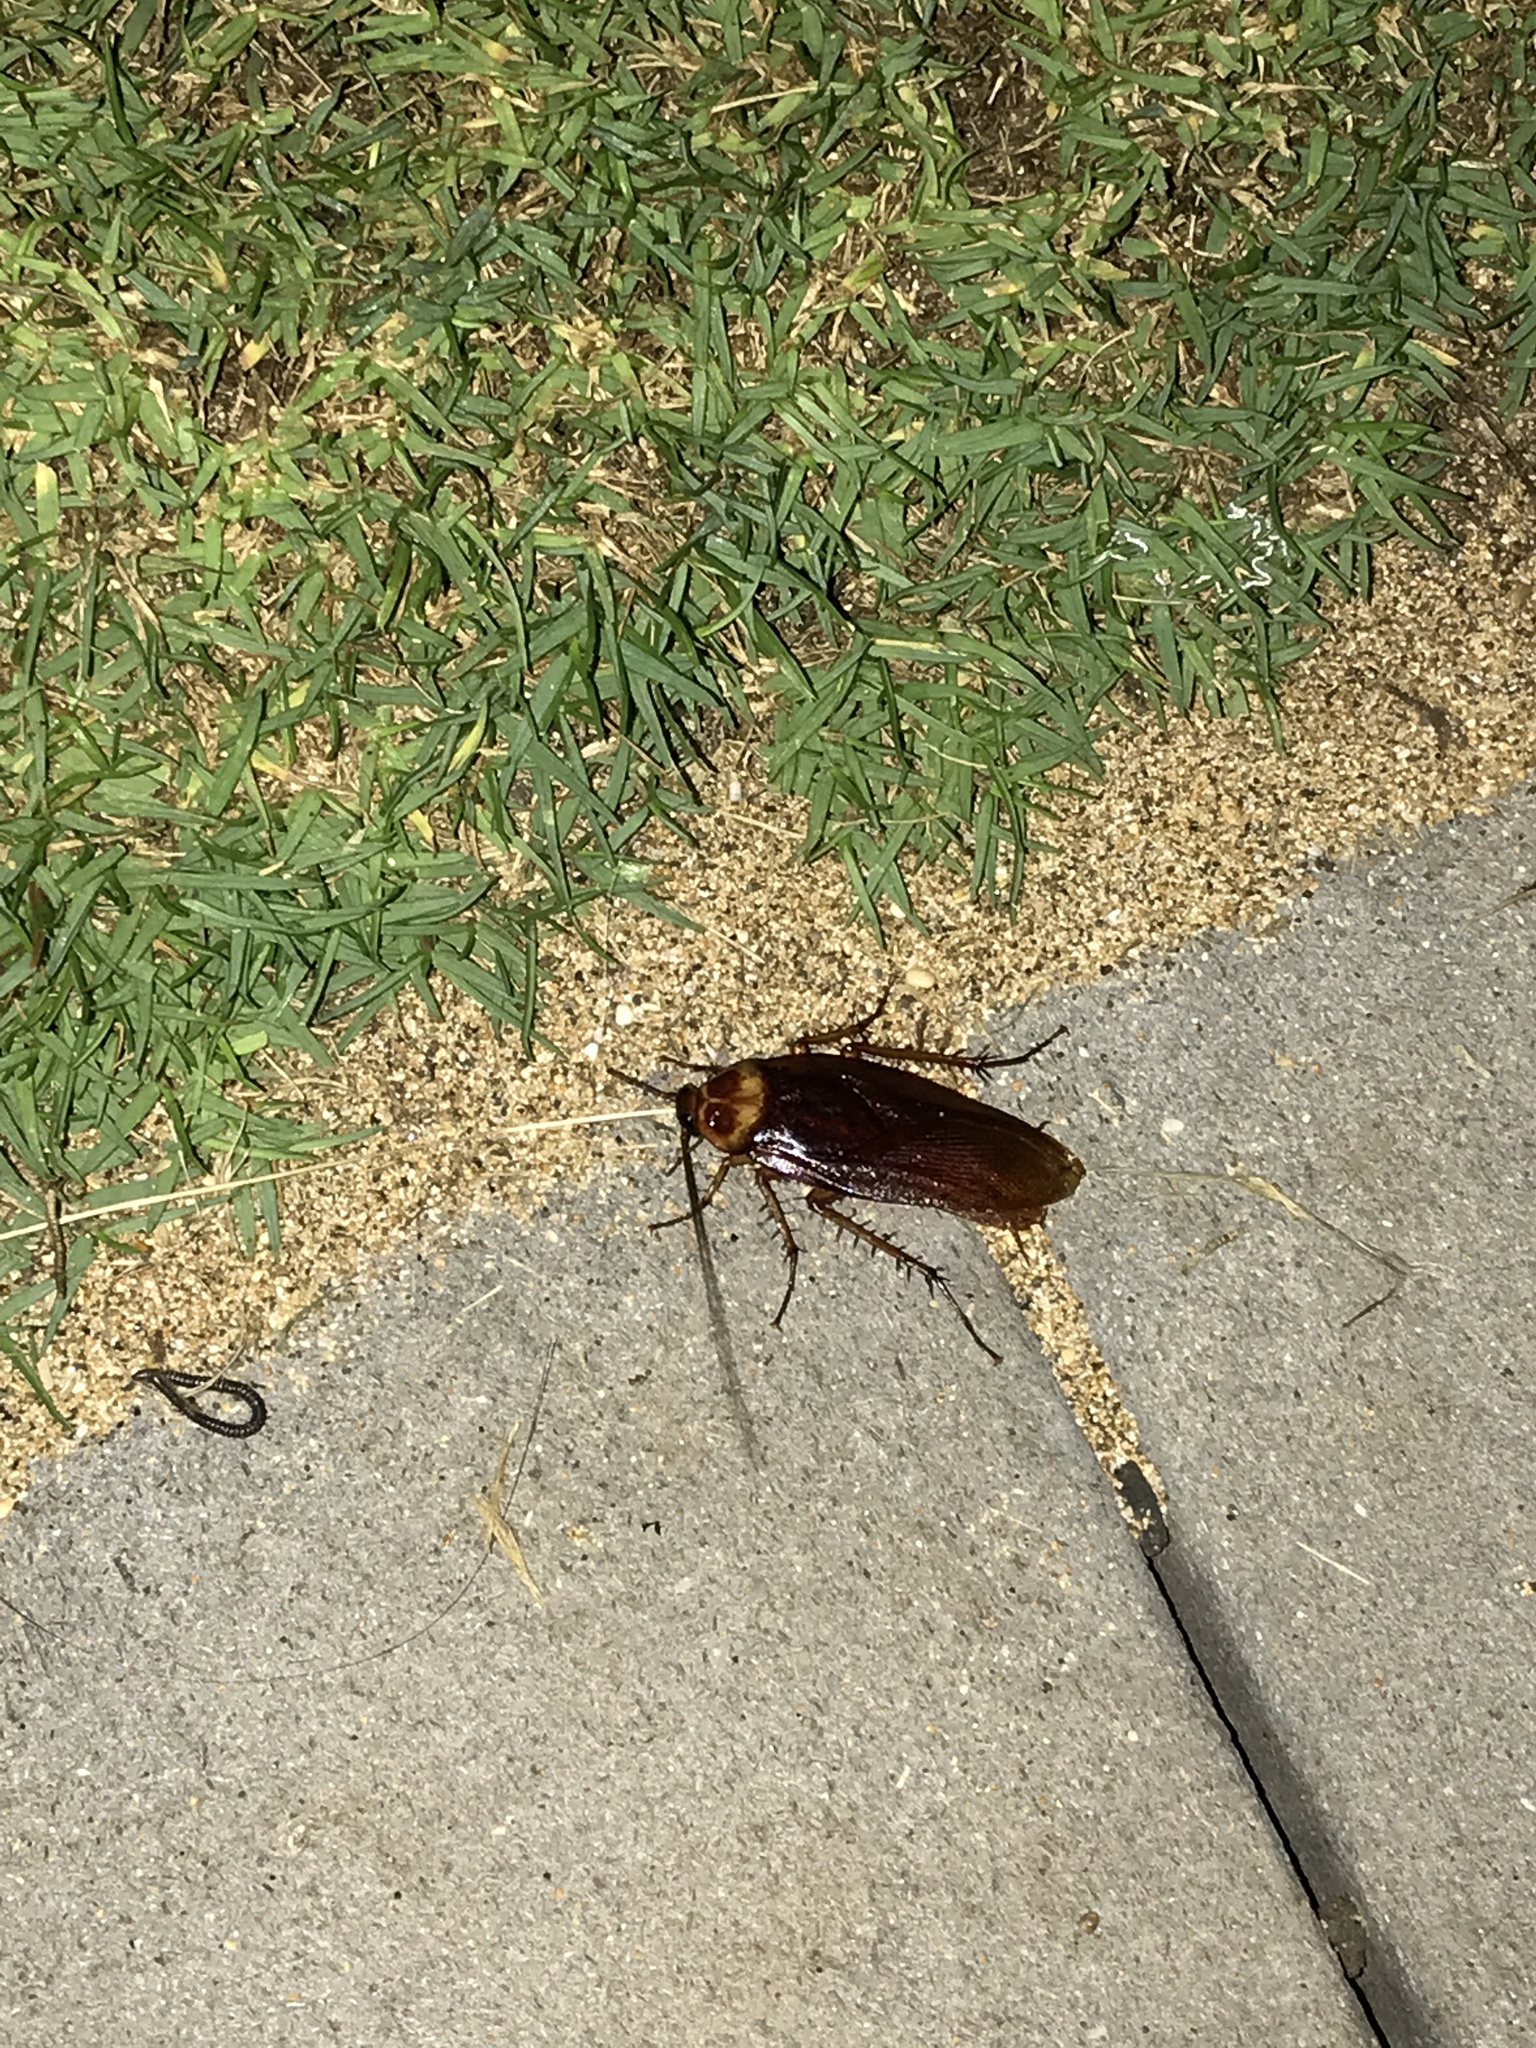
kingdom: Animalia
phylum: Arthropoda
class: Insecta
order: Blattodea
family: Blattidae
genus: Periplaneta
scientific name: Periplaneta americana
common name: American cockroach
